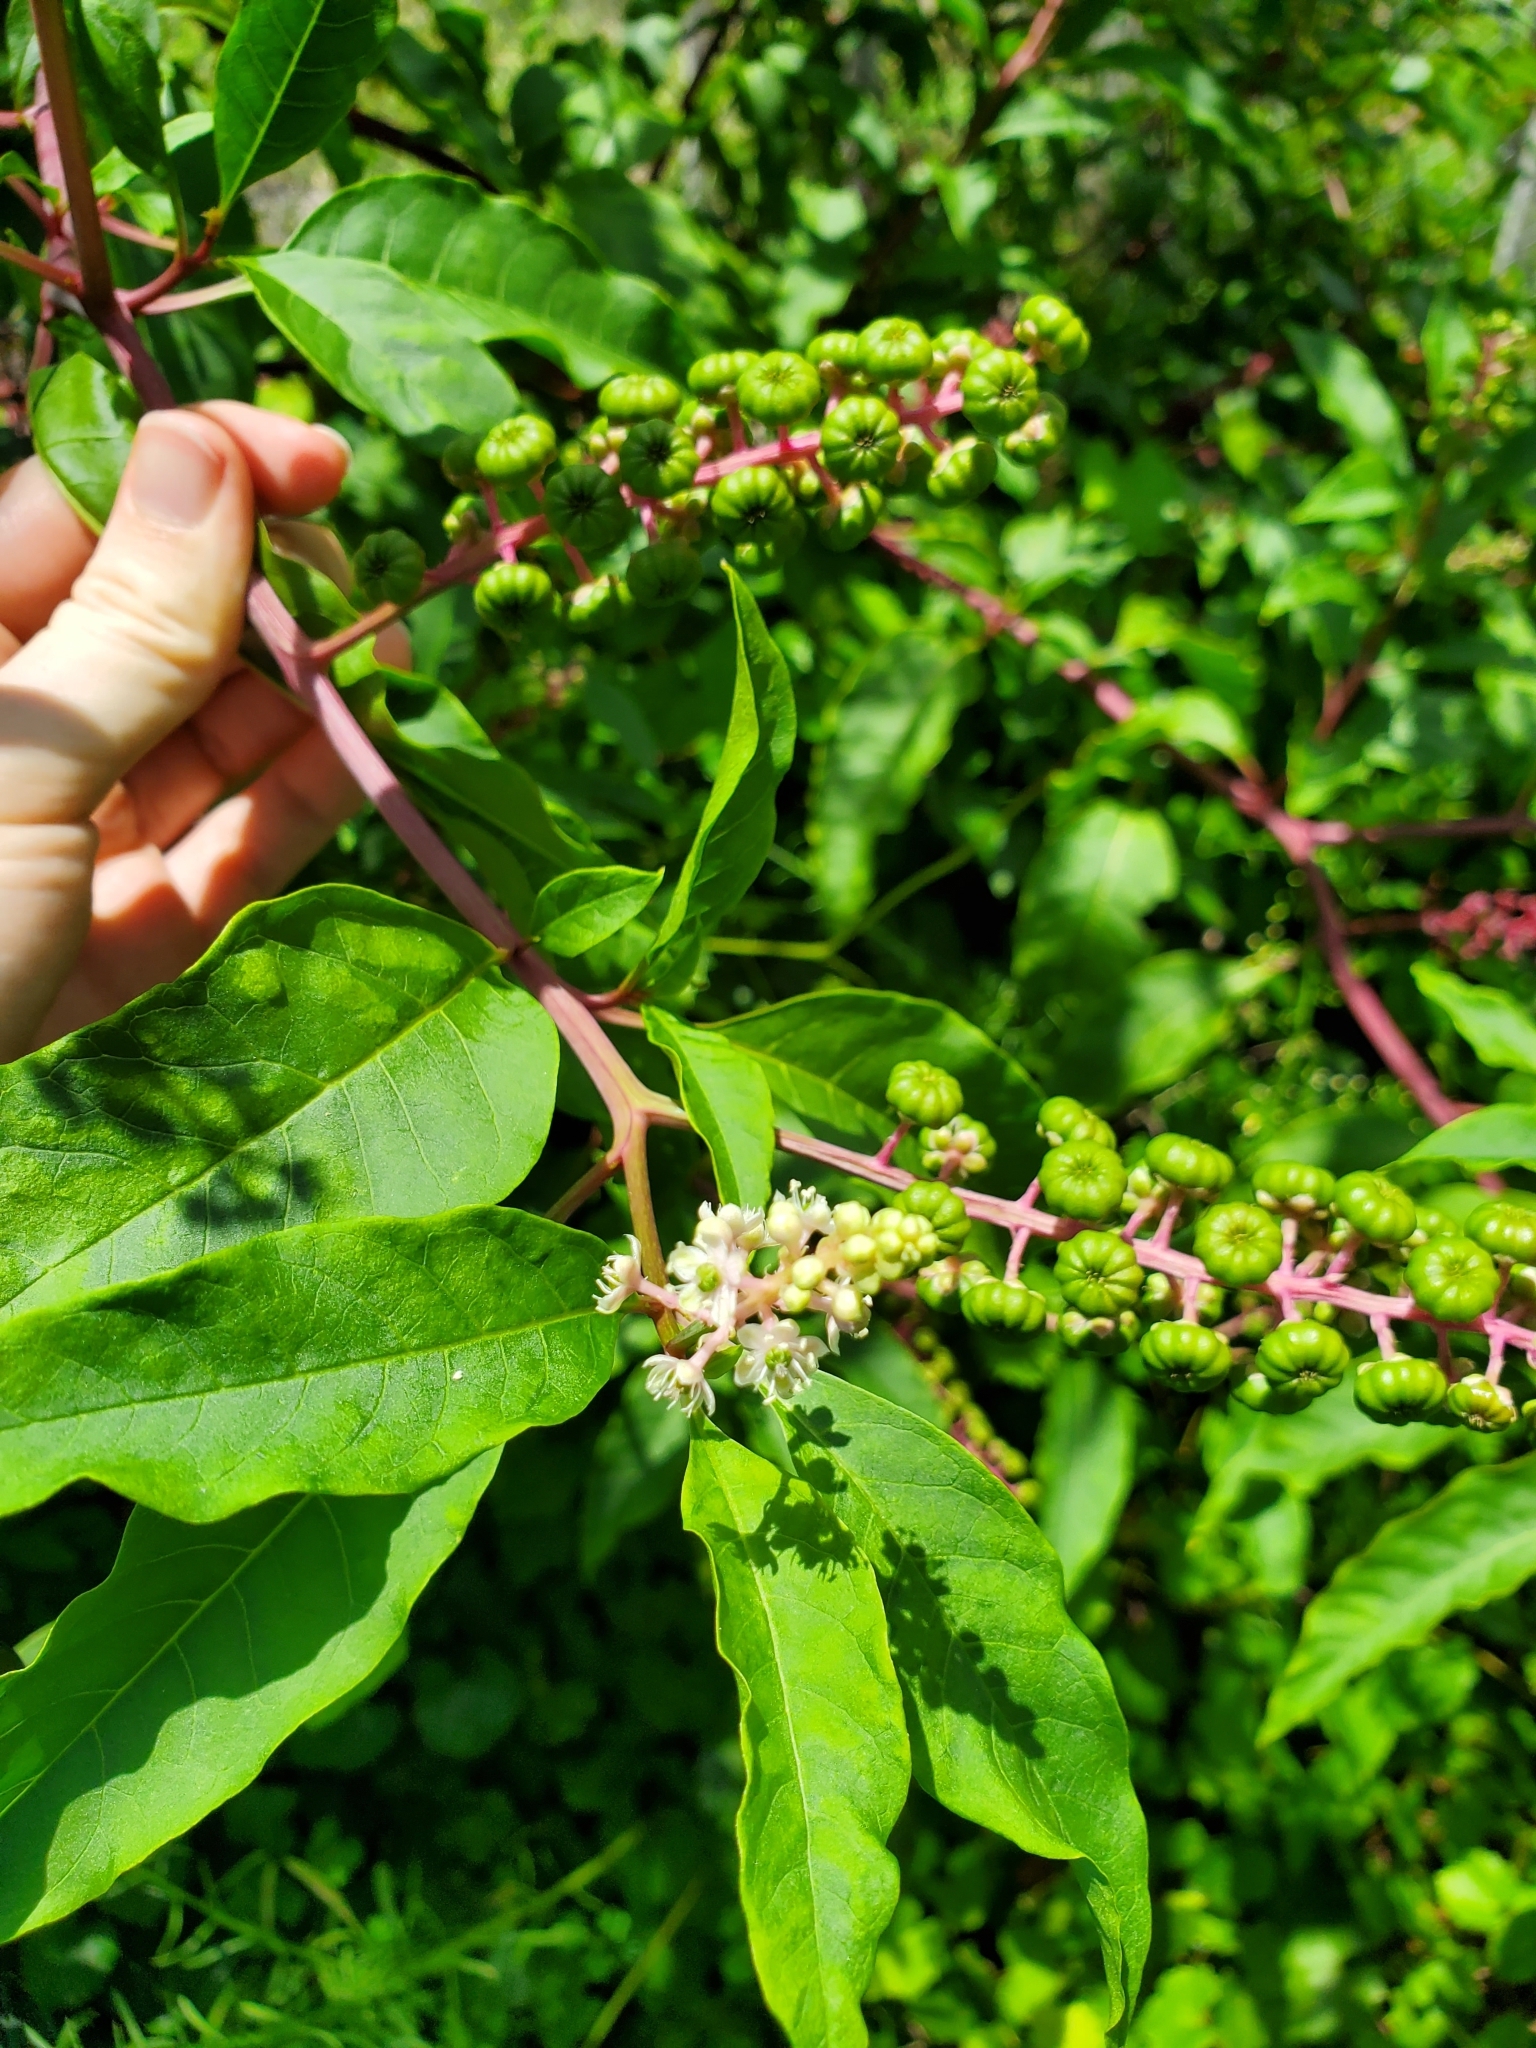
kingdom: Plantae
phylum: Tracheophyta
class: Magnoliopsida
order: Caryophyllales
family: Phytolaccaceae
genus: Phytolacca
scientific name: Phytolacca americana
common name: American pokeweed
